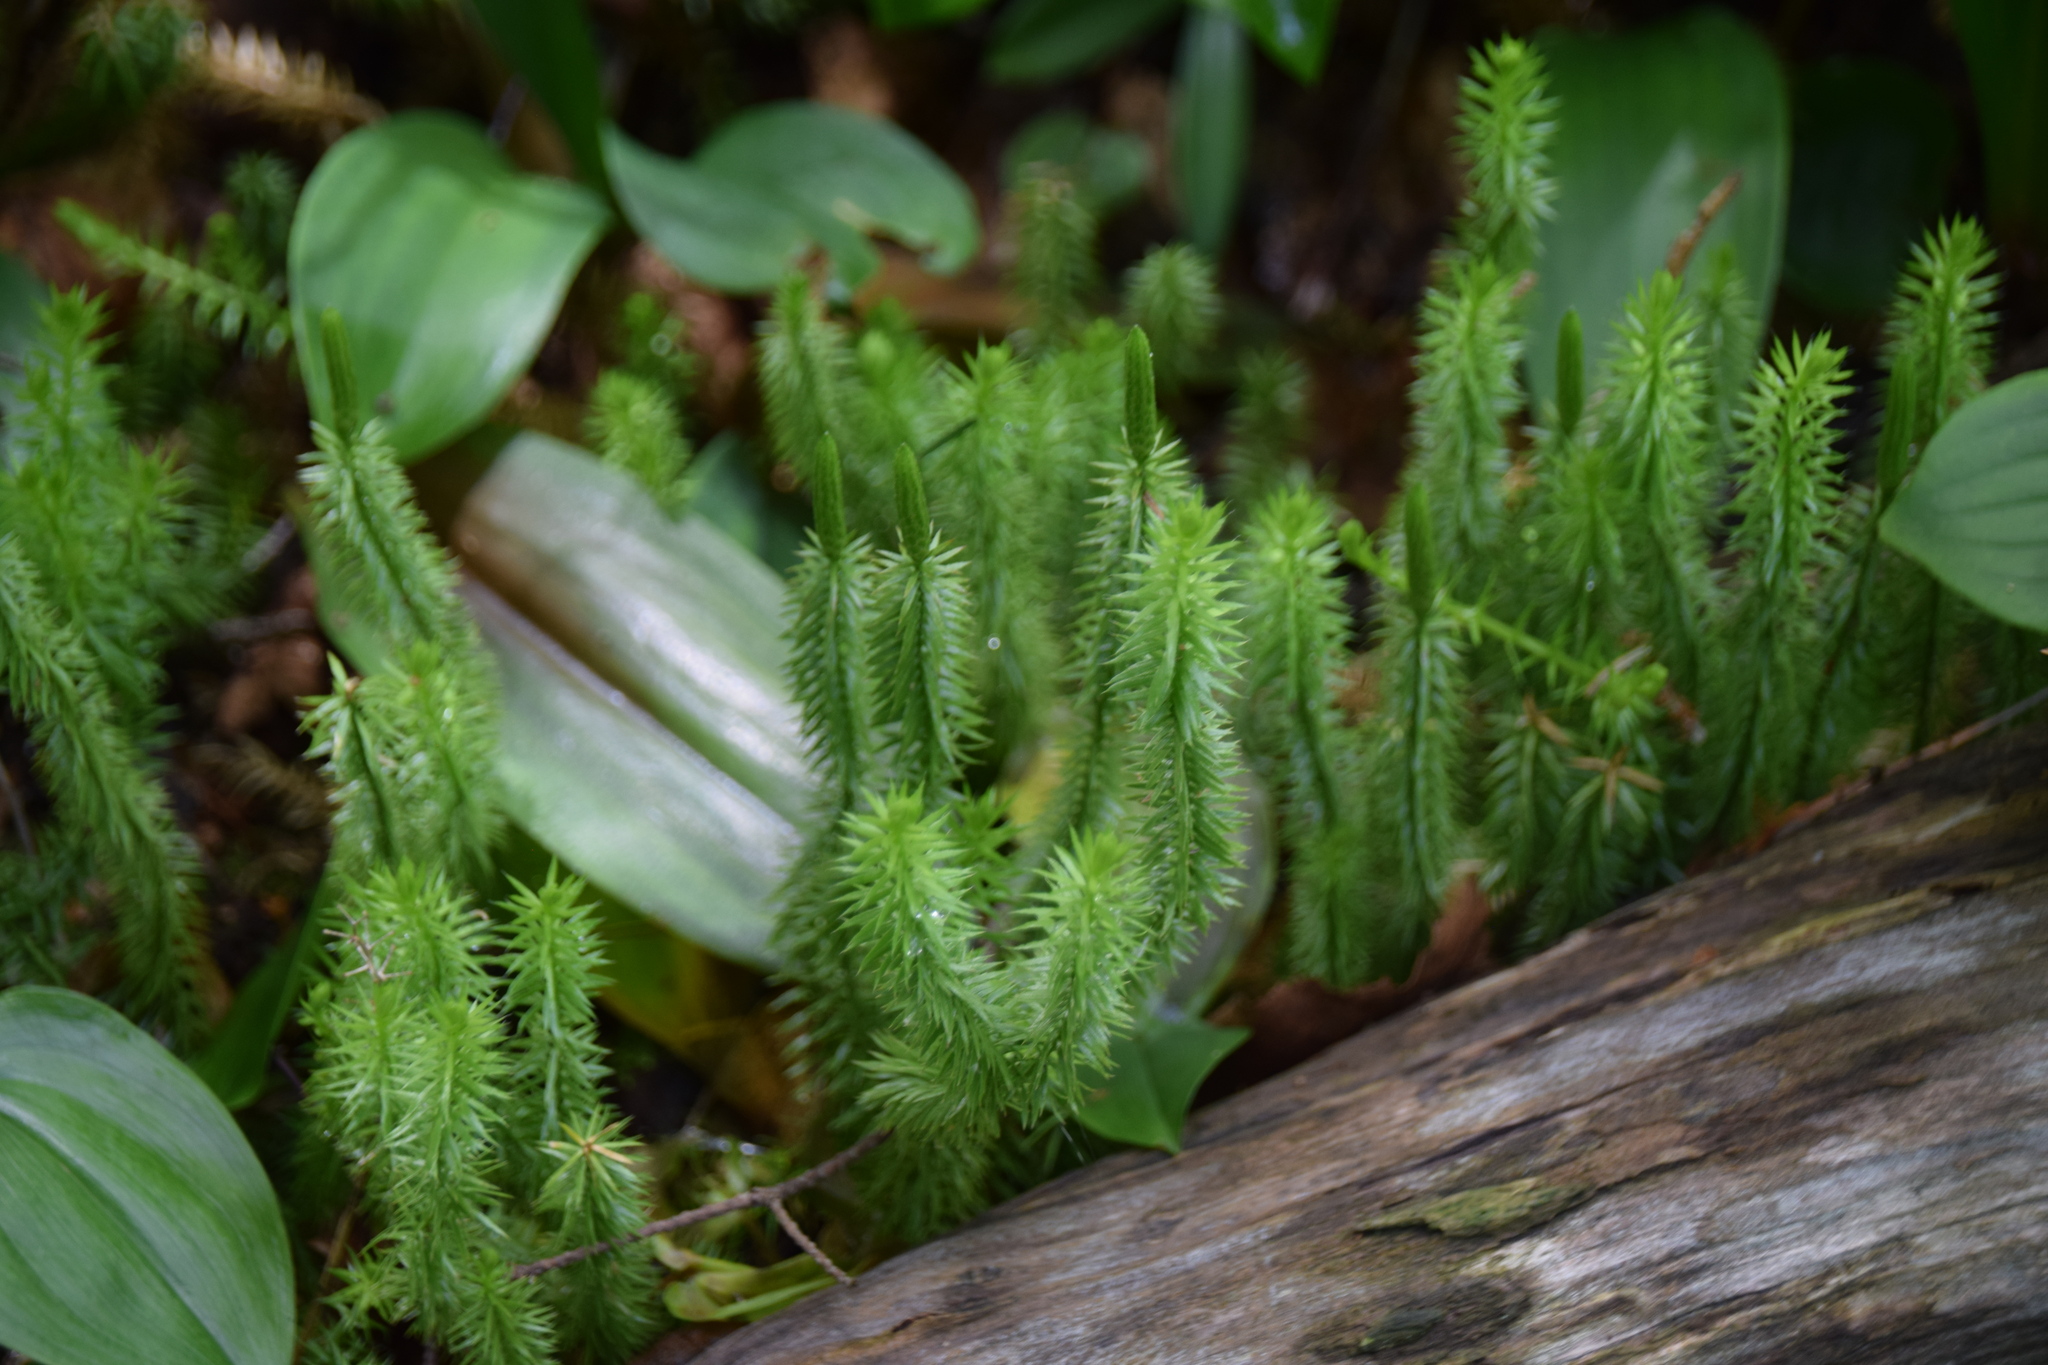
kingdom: Plantae
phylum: Tracheophyta
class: Lycopodiopsida
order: Lycopodiales
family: Lycopodiaceae
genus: Spinulum
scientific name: Spinulum annotinum
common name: Interrupted club-moss
